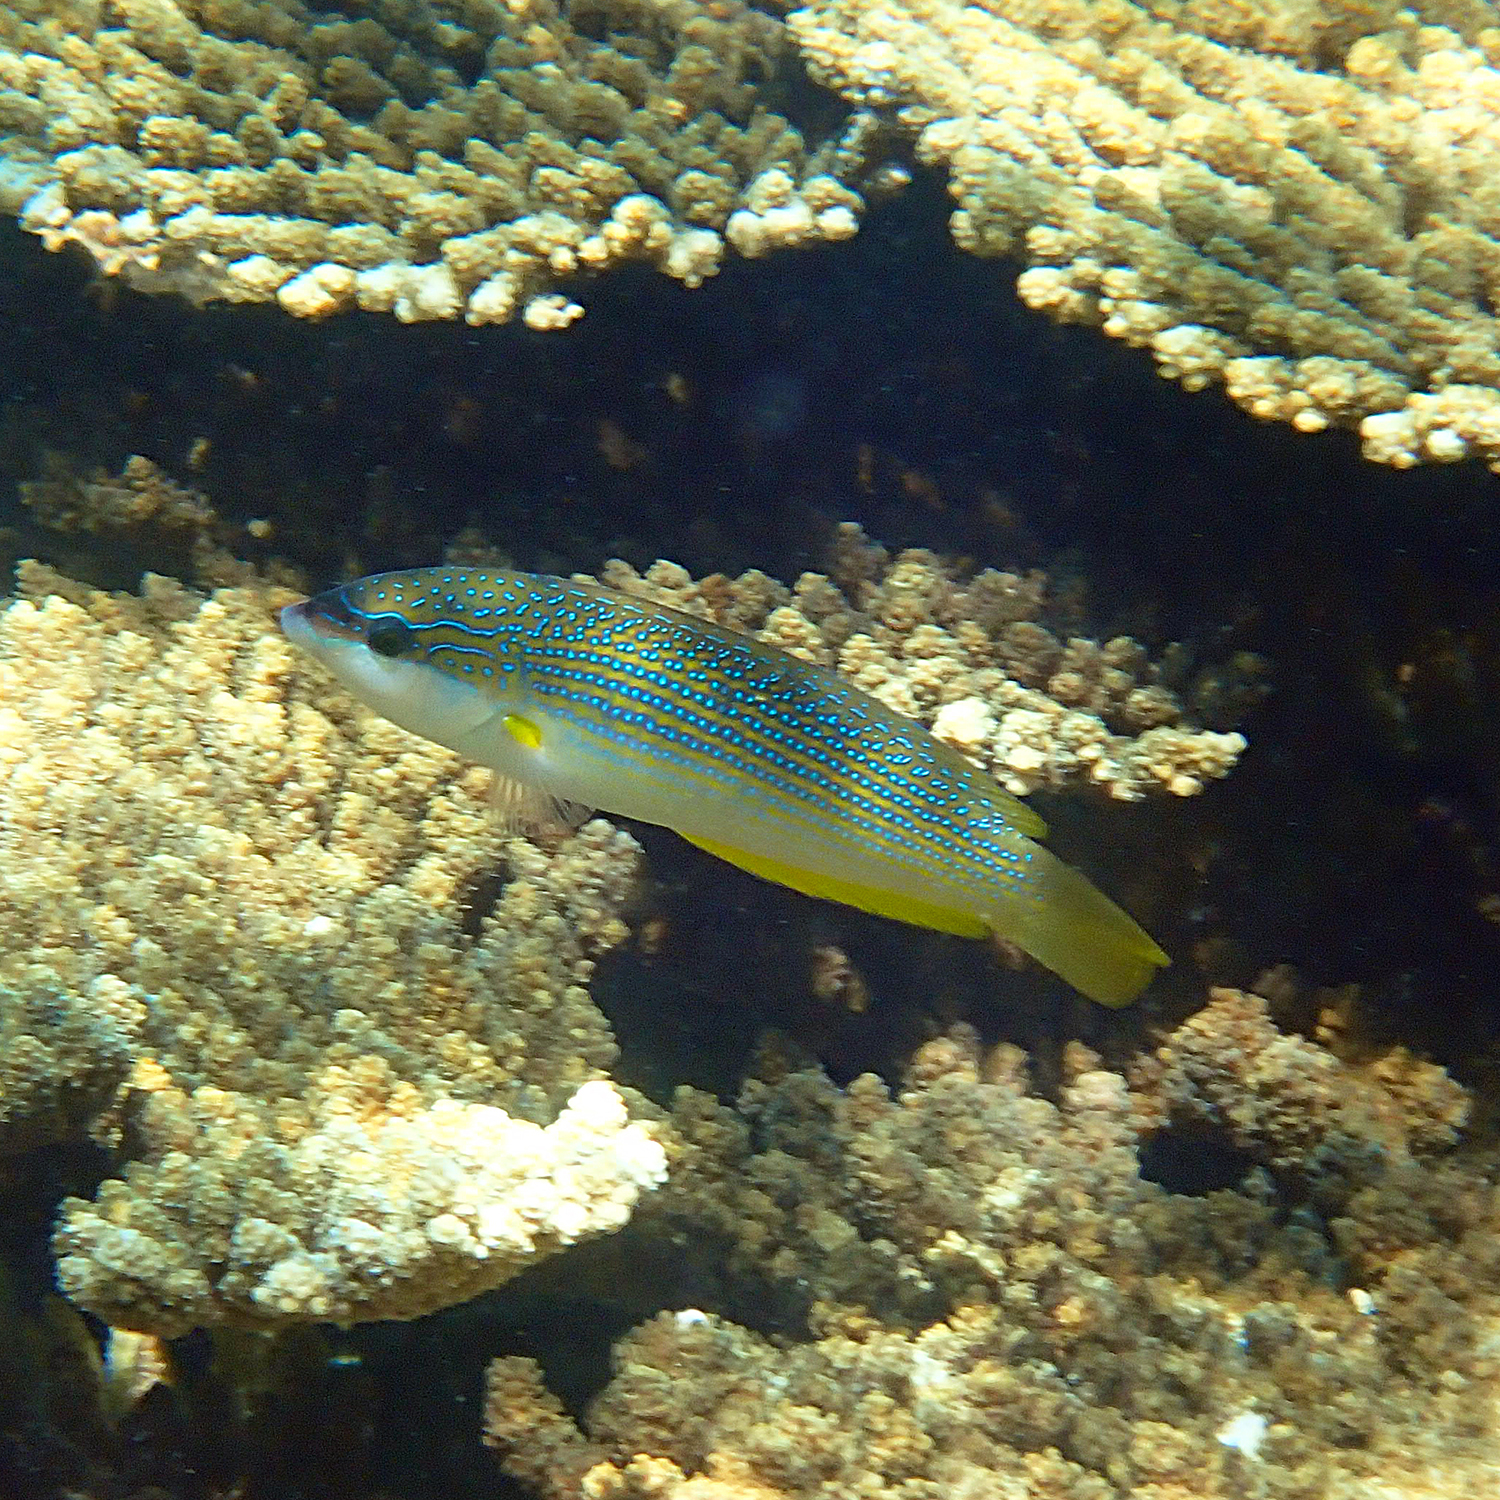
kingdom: Animalia
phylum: Chordata
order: Perciformes
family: Labridae
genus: Anampses
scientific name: Anampses elegans
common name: Elegant wrasse
